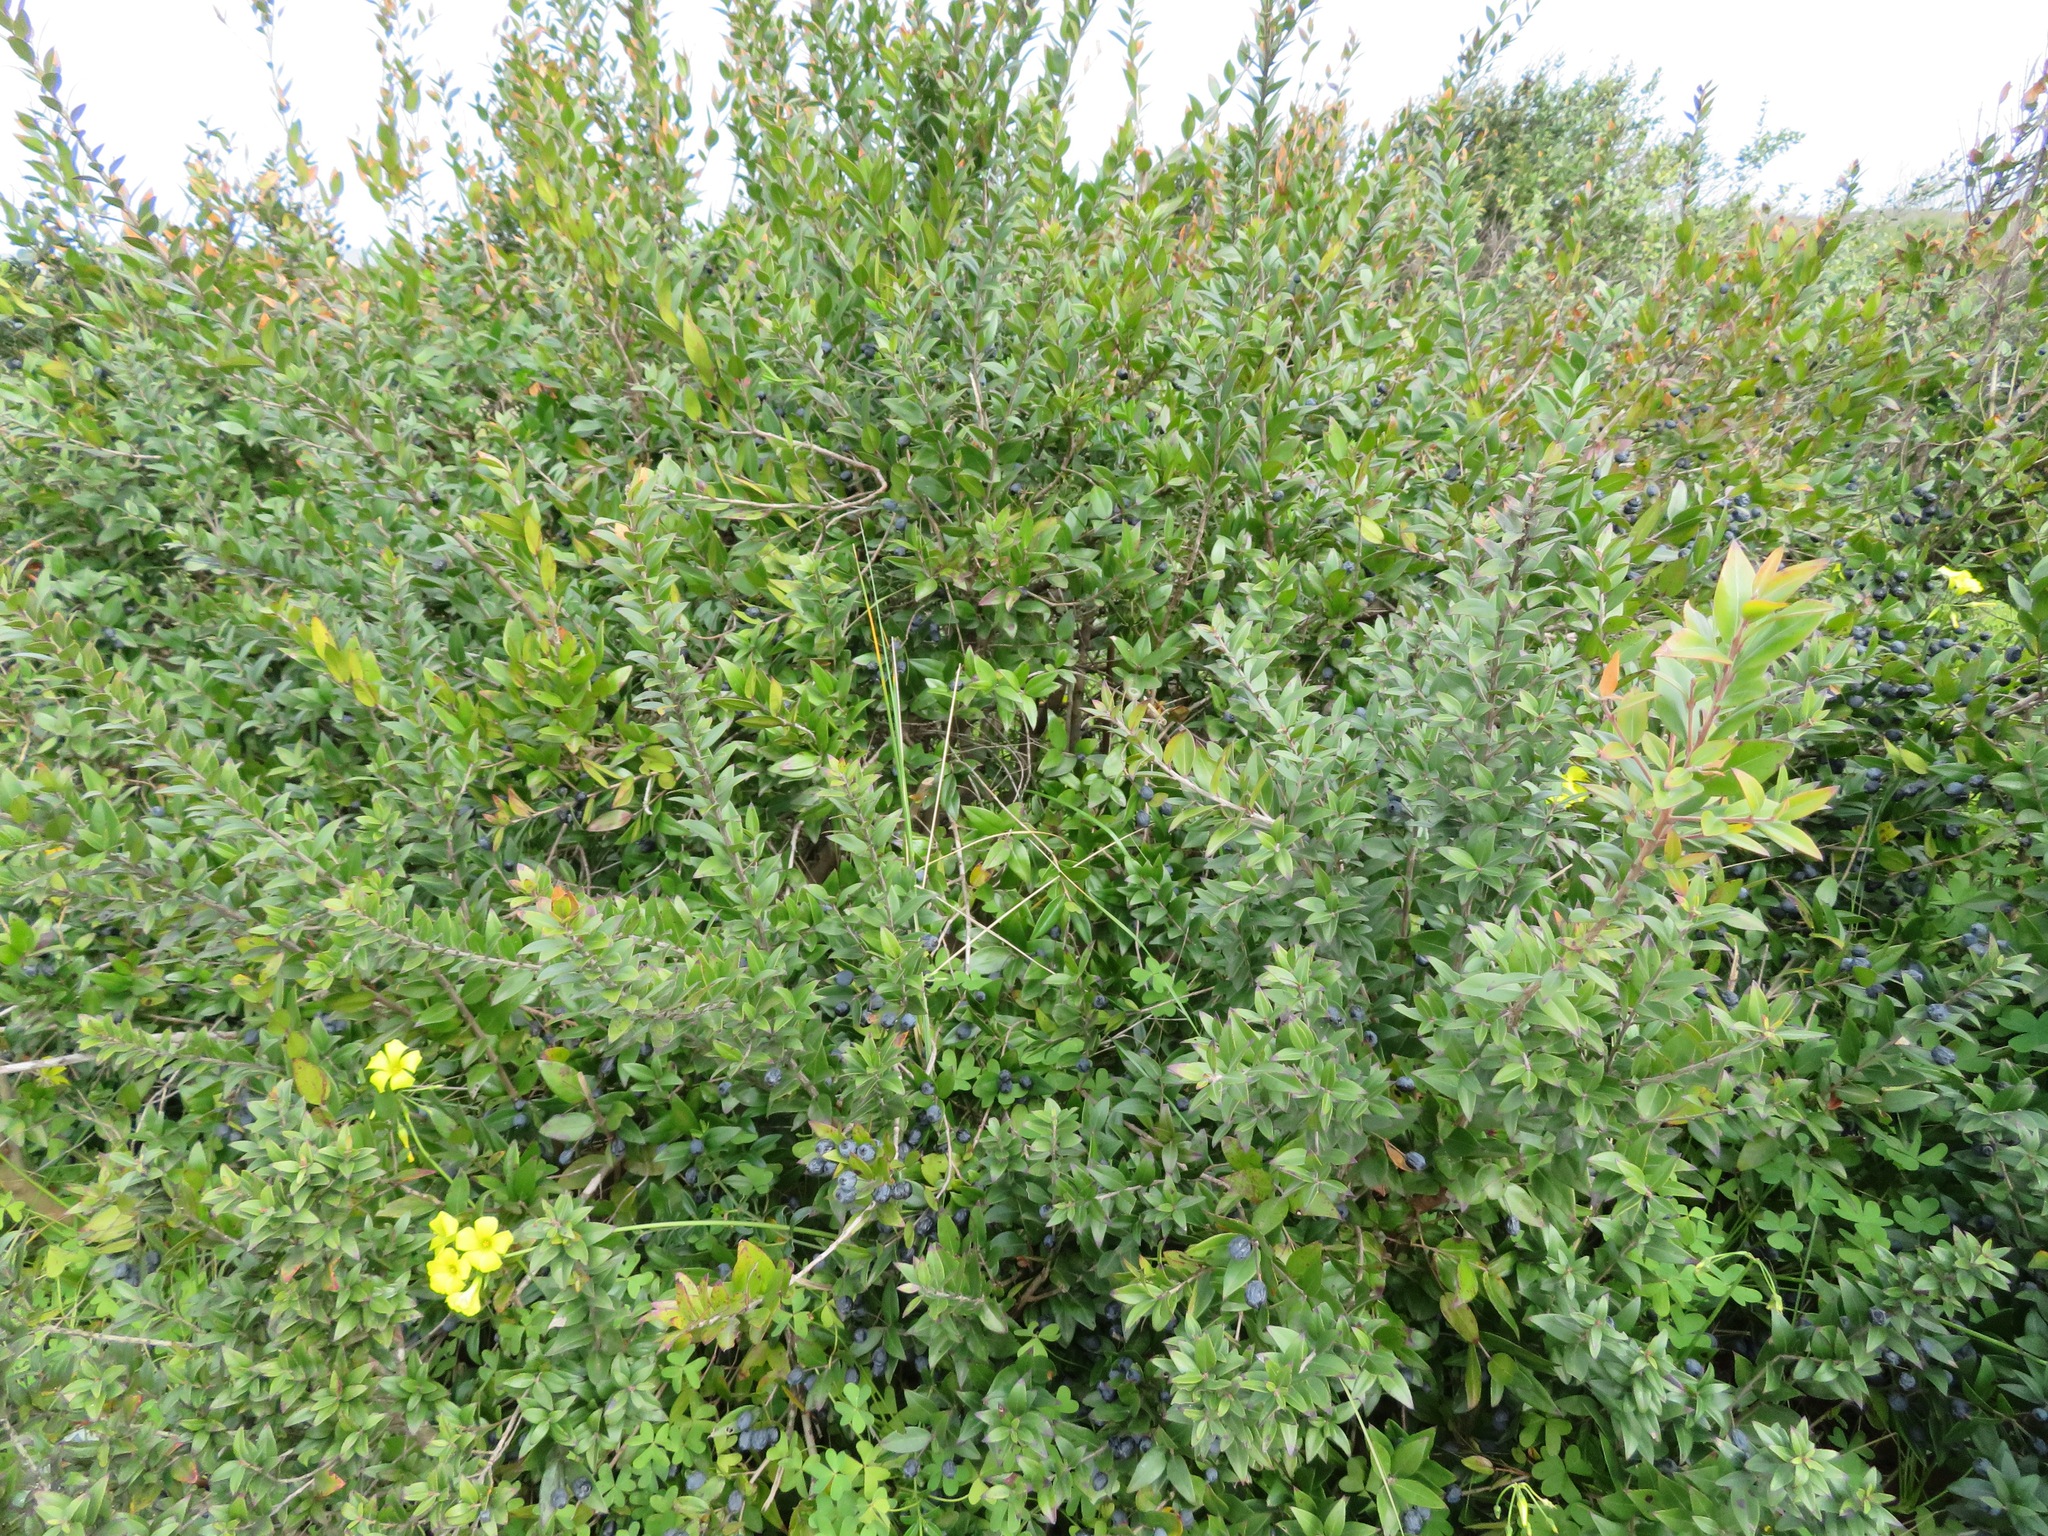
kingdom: Plantae
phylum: Tracheophyta
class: Magnoliopsida
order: Myrtales
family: Myrtaceae
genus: Myrtus
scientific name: Myrtus communis
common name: Myrtle
